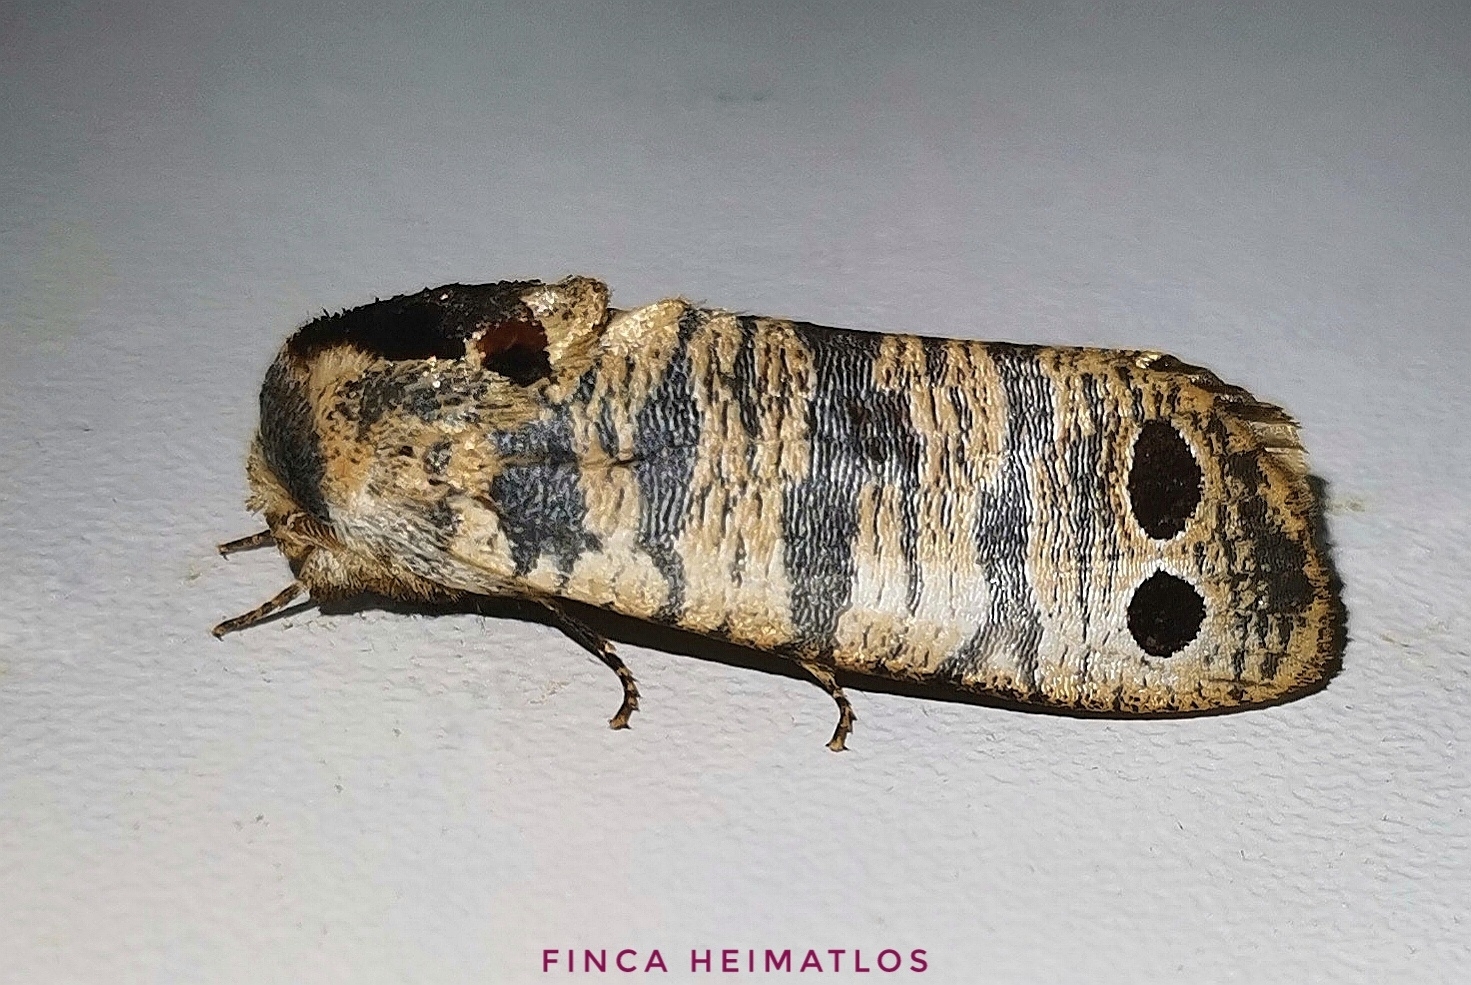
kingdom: Animalia
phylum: Arthropoda
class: Insecta
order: Lepidoptera
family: Dudgeoneidae
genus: Biocellata
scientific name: Biocellata praeclara
